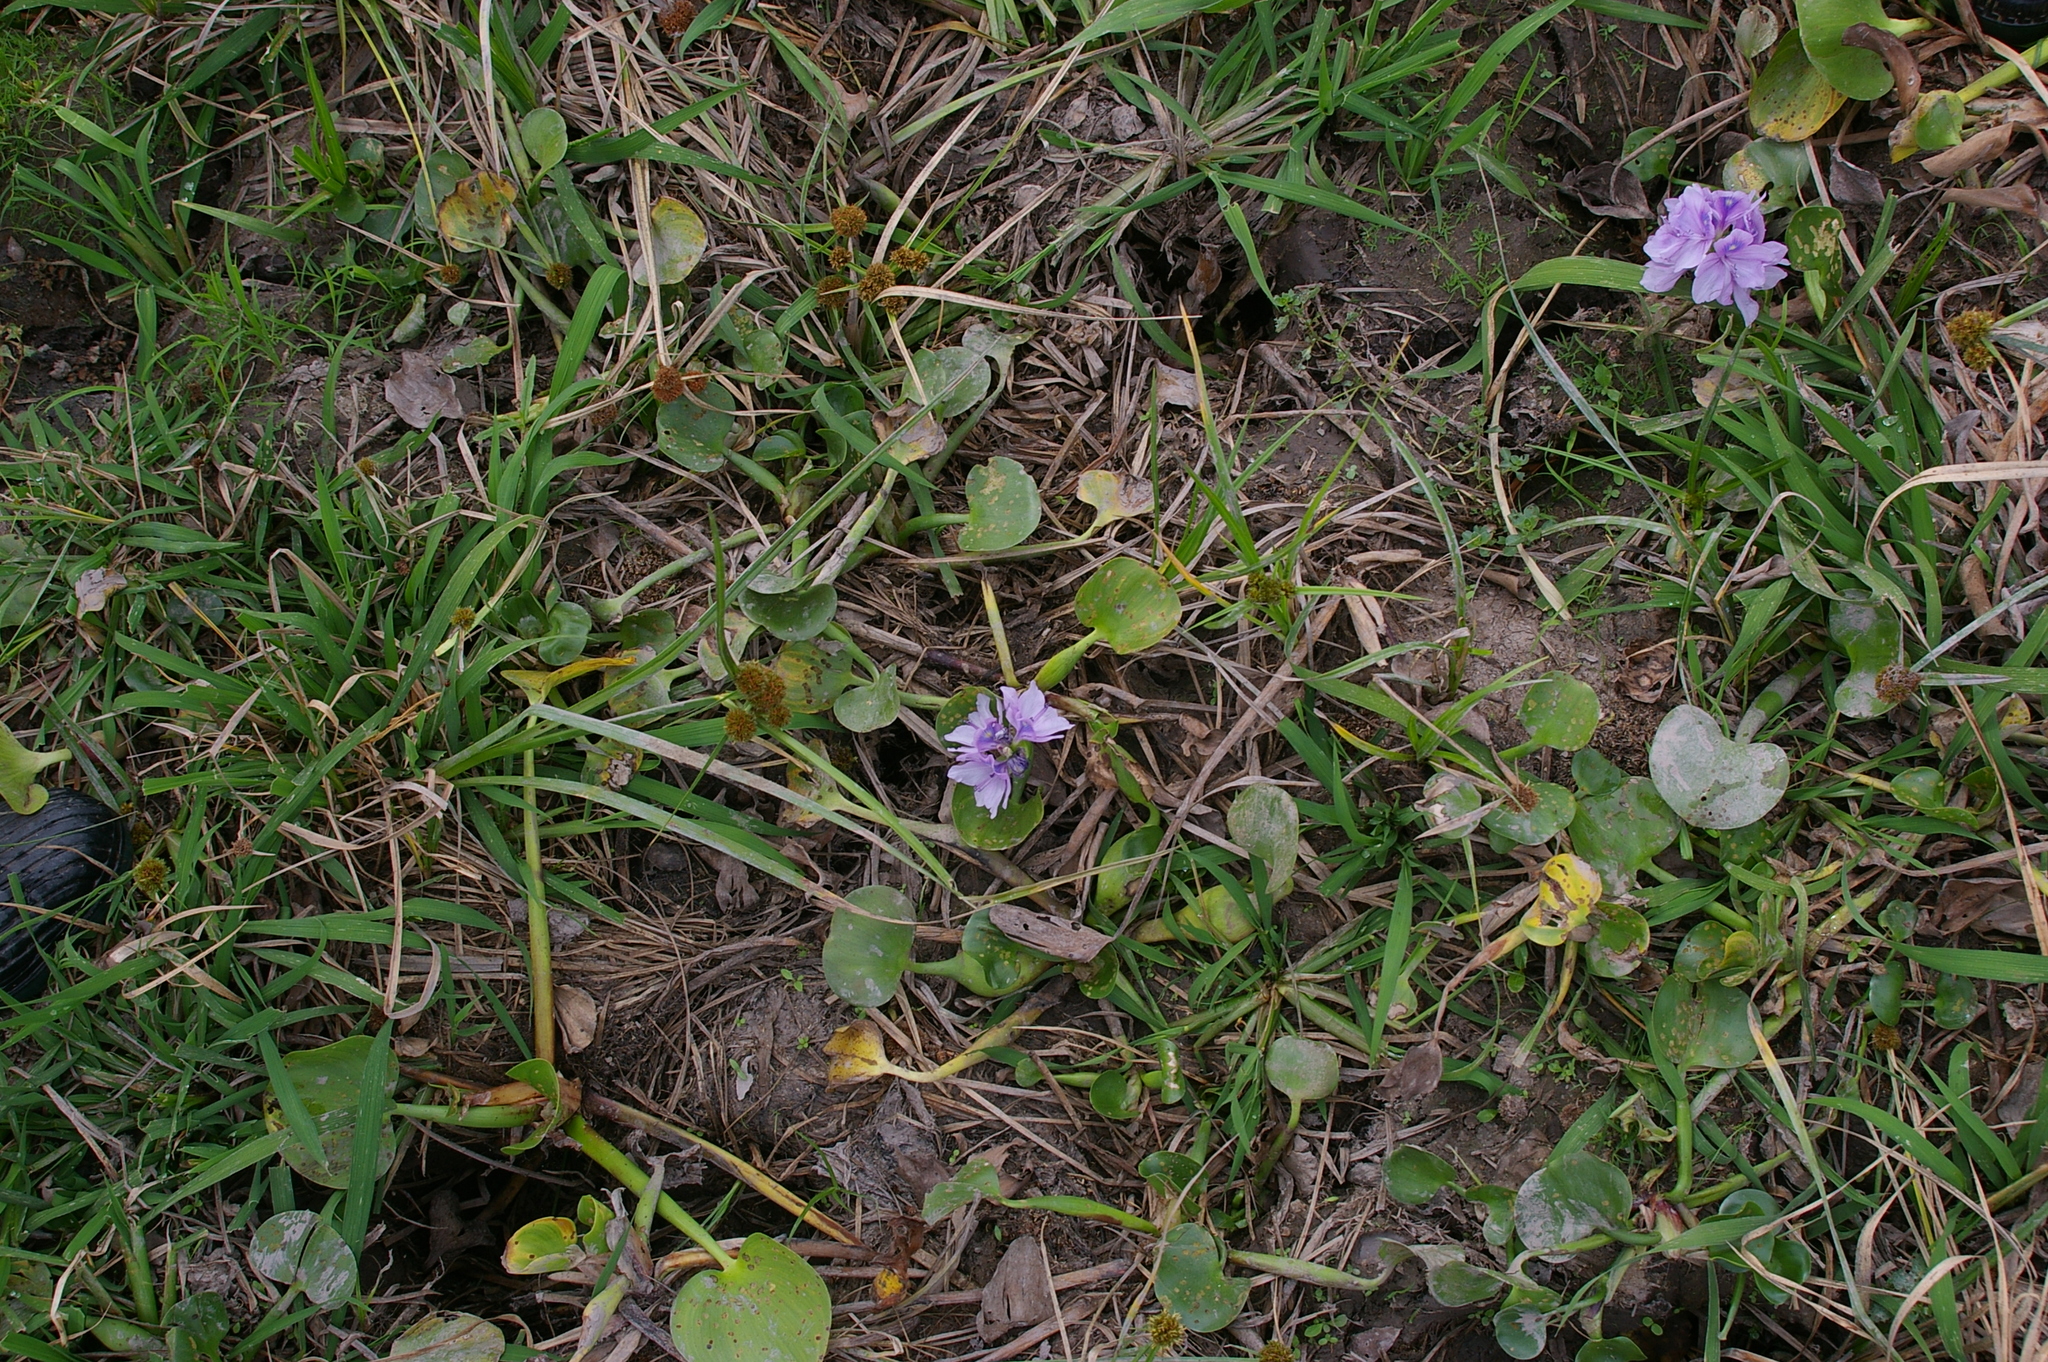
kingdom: Plantae
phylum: Tracheophyta
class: Liliopsida
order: Commelinales
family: Pontederiaceae
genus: Pontederia
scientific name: Pontederia crassipes
